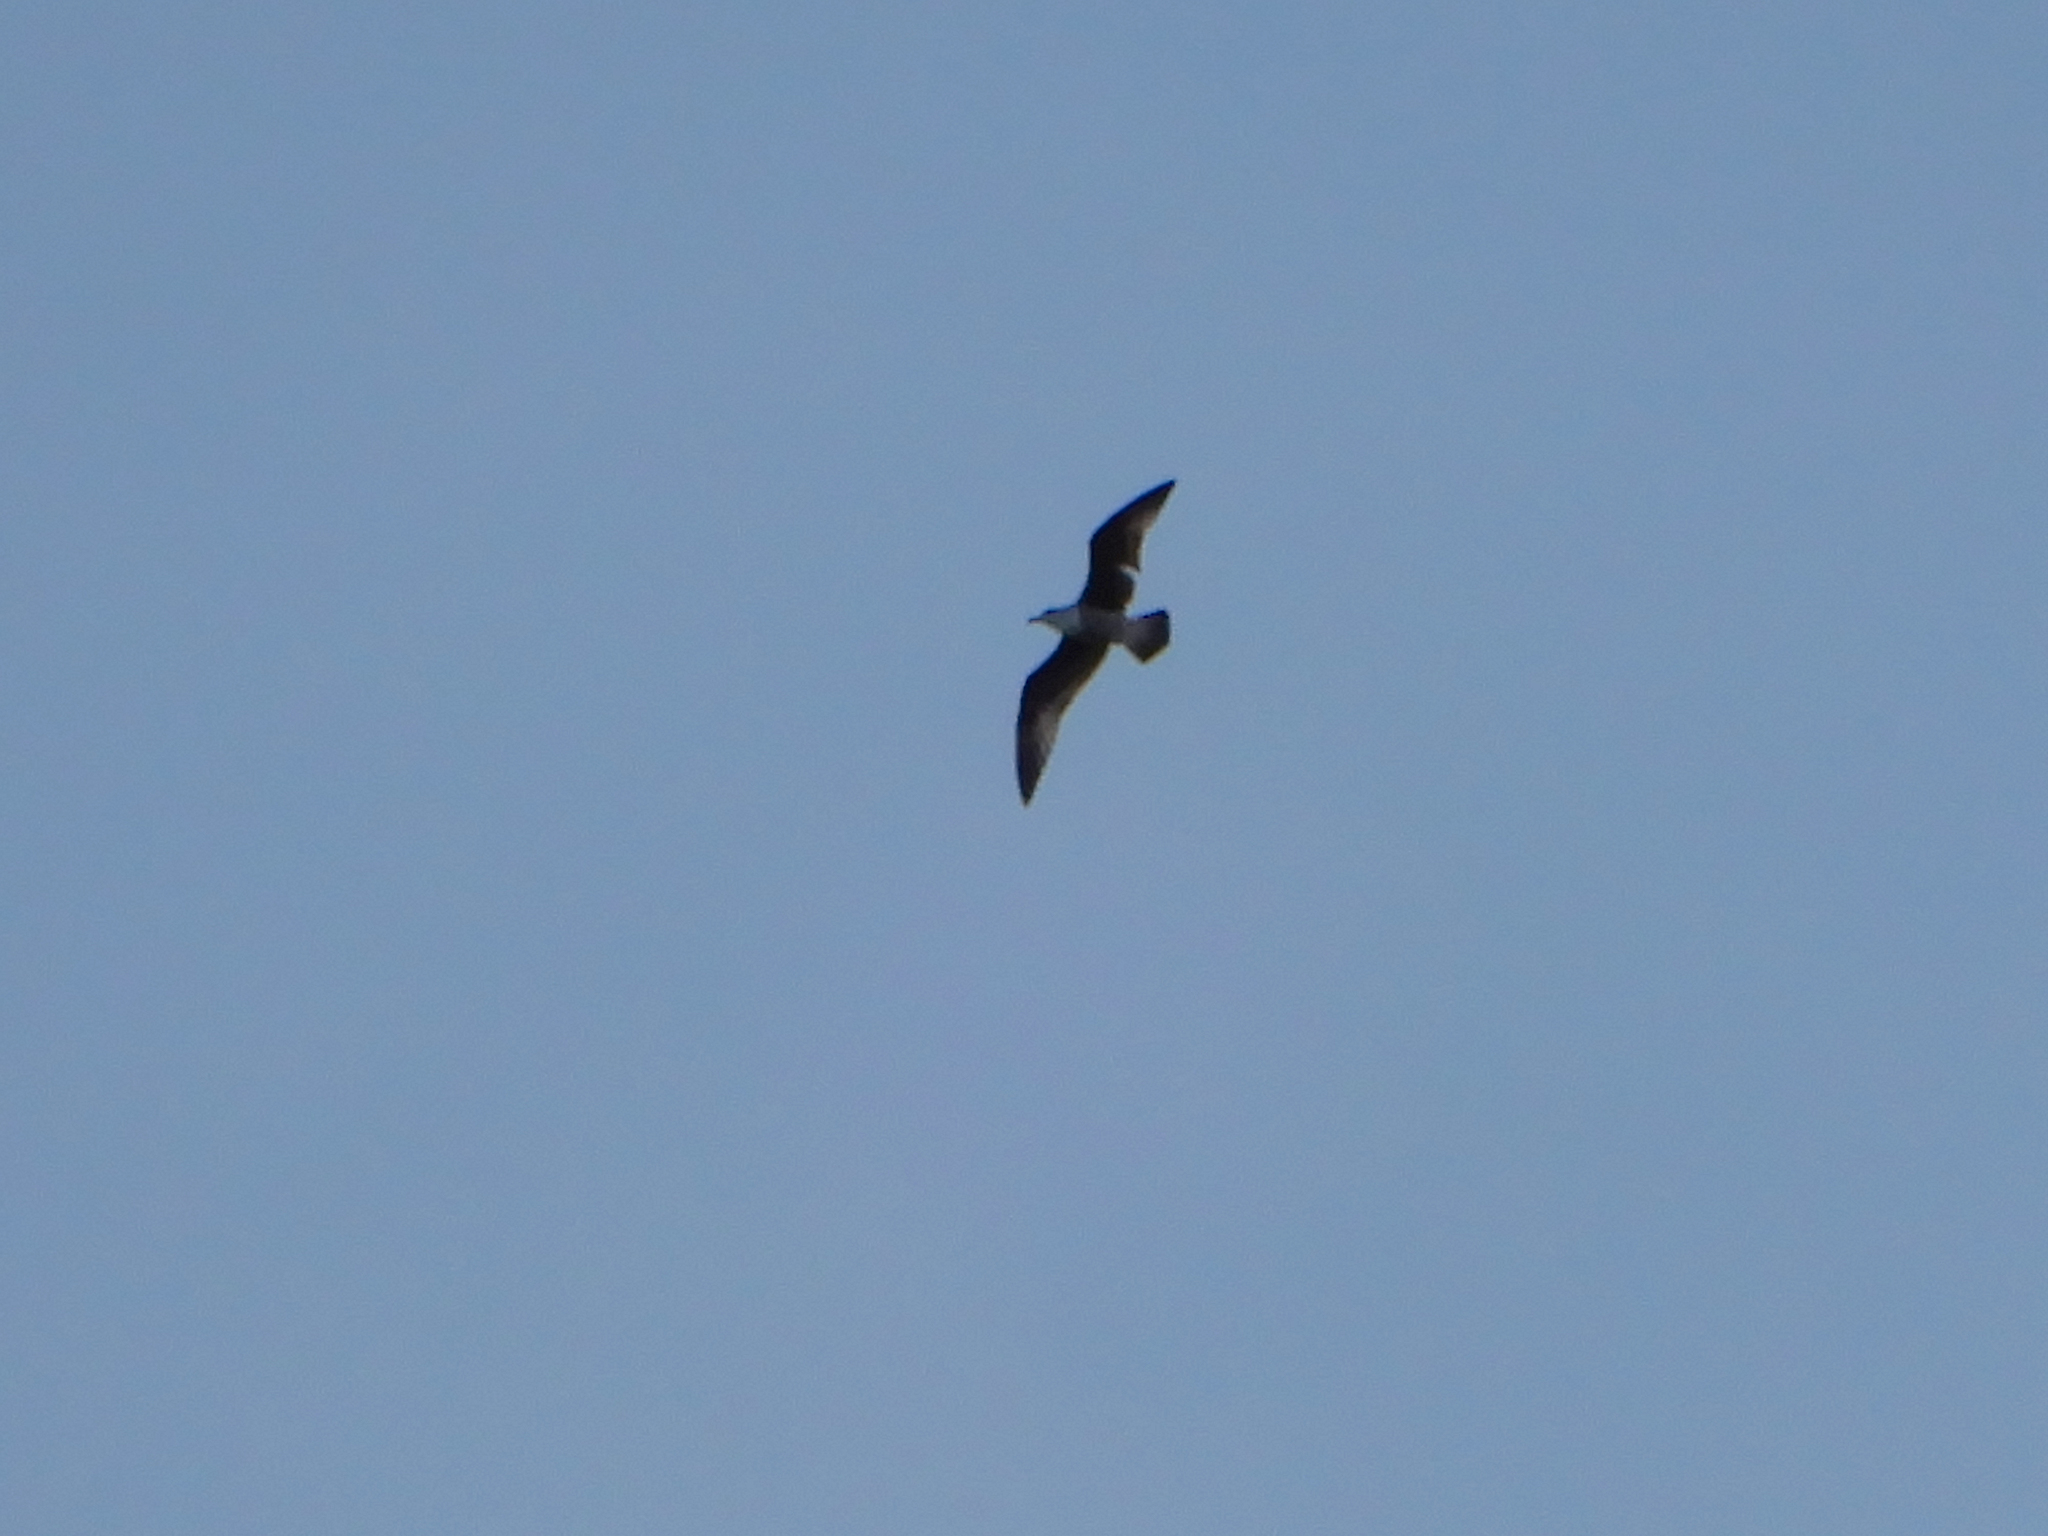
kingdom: Animalia
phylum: Chordata
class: Aves
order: Charadriiformes
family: Laridae
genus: Larus
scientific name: Larus argentatus
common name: Herring gull
